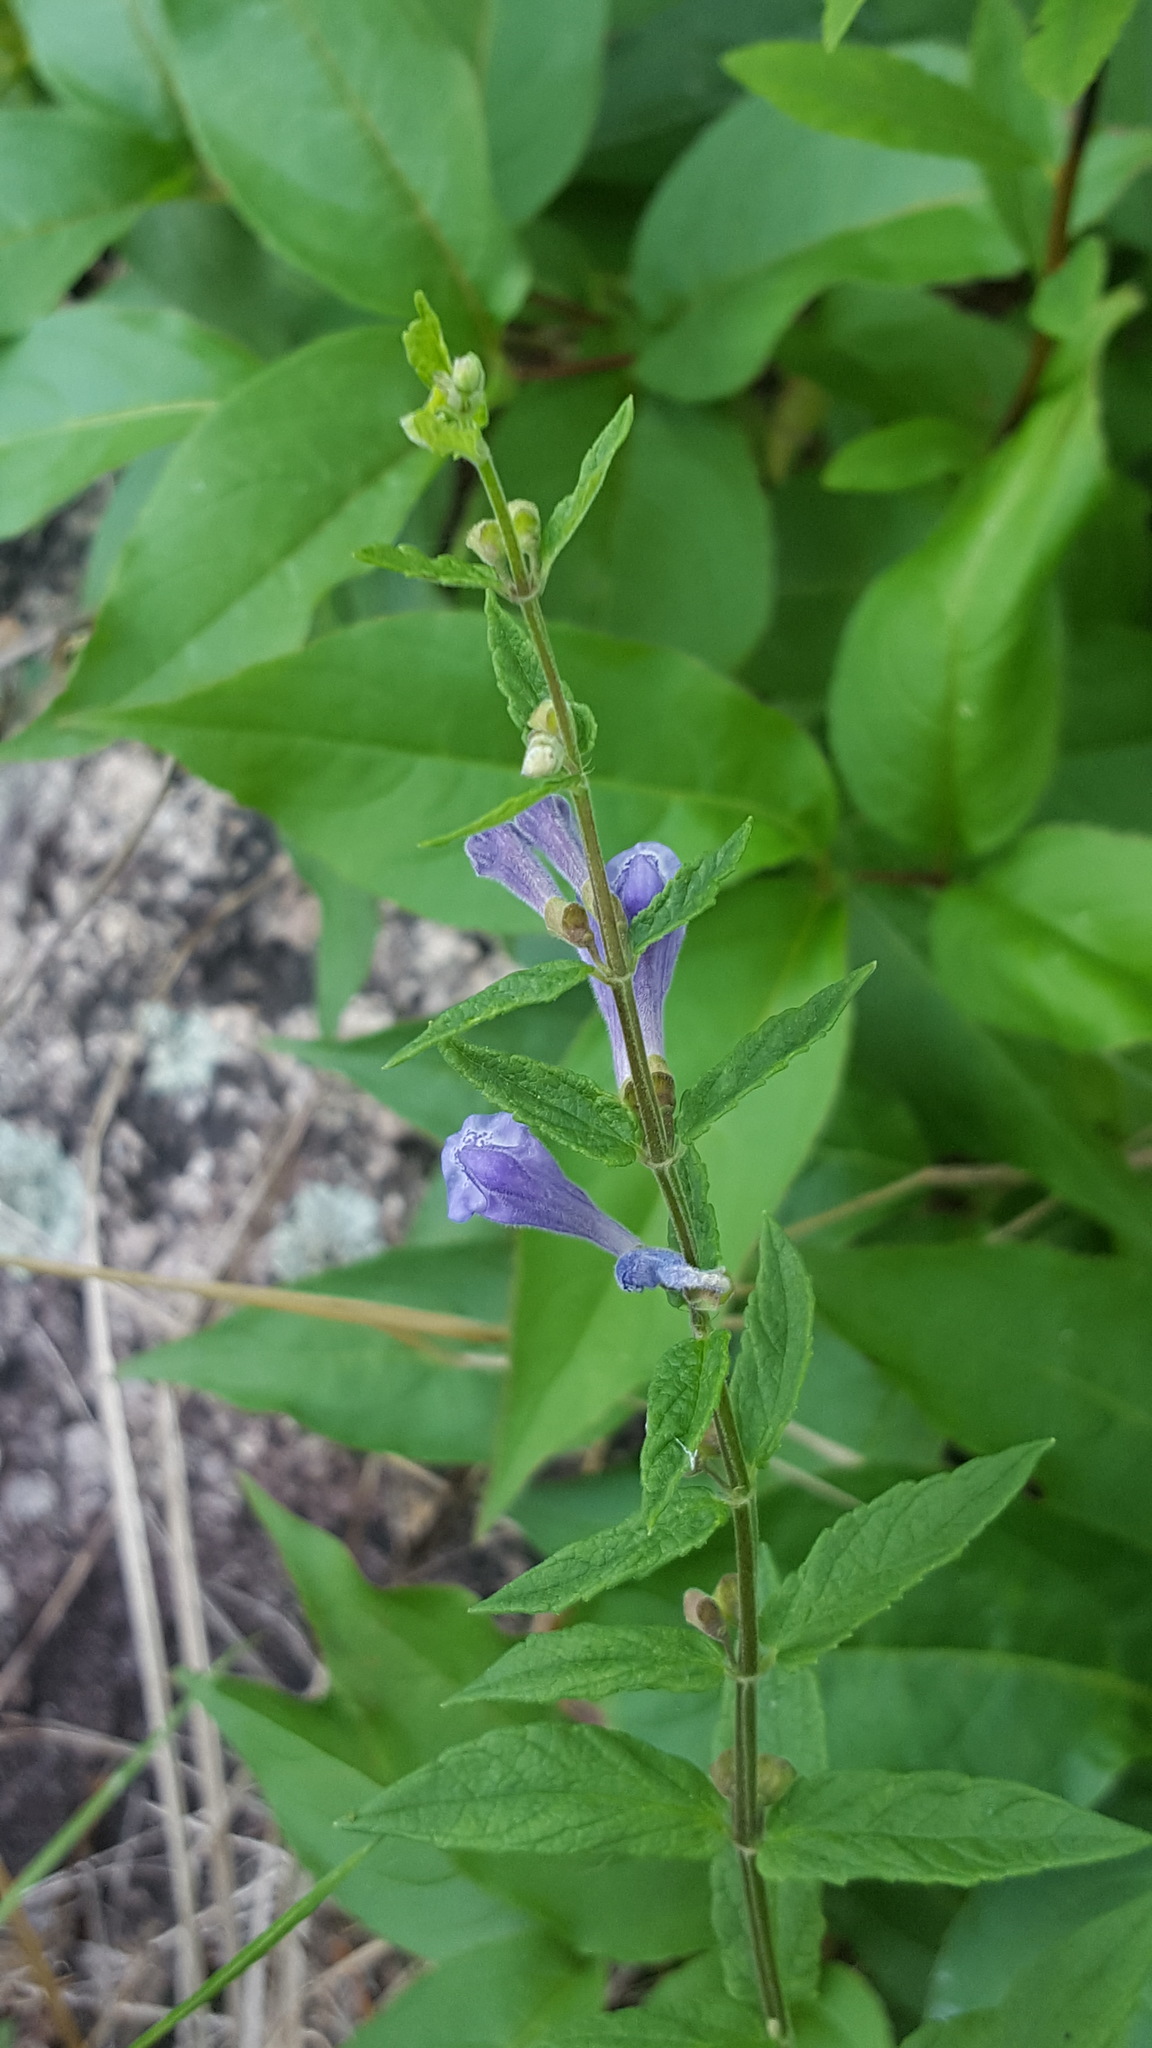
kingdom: Plantae
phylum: Tracheophyta
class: Magnoliopsida
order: Lamiales
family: Lamiaceae
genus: Scutellaria
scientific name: Scutellaria galericulata
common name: Skullcap
